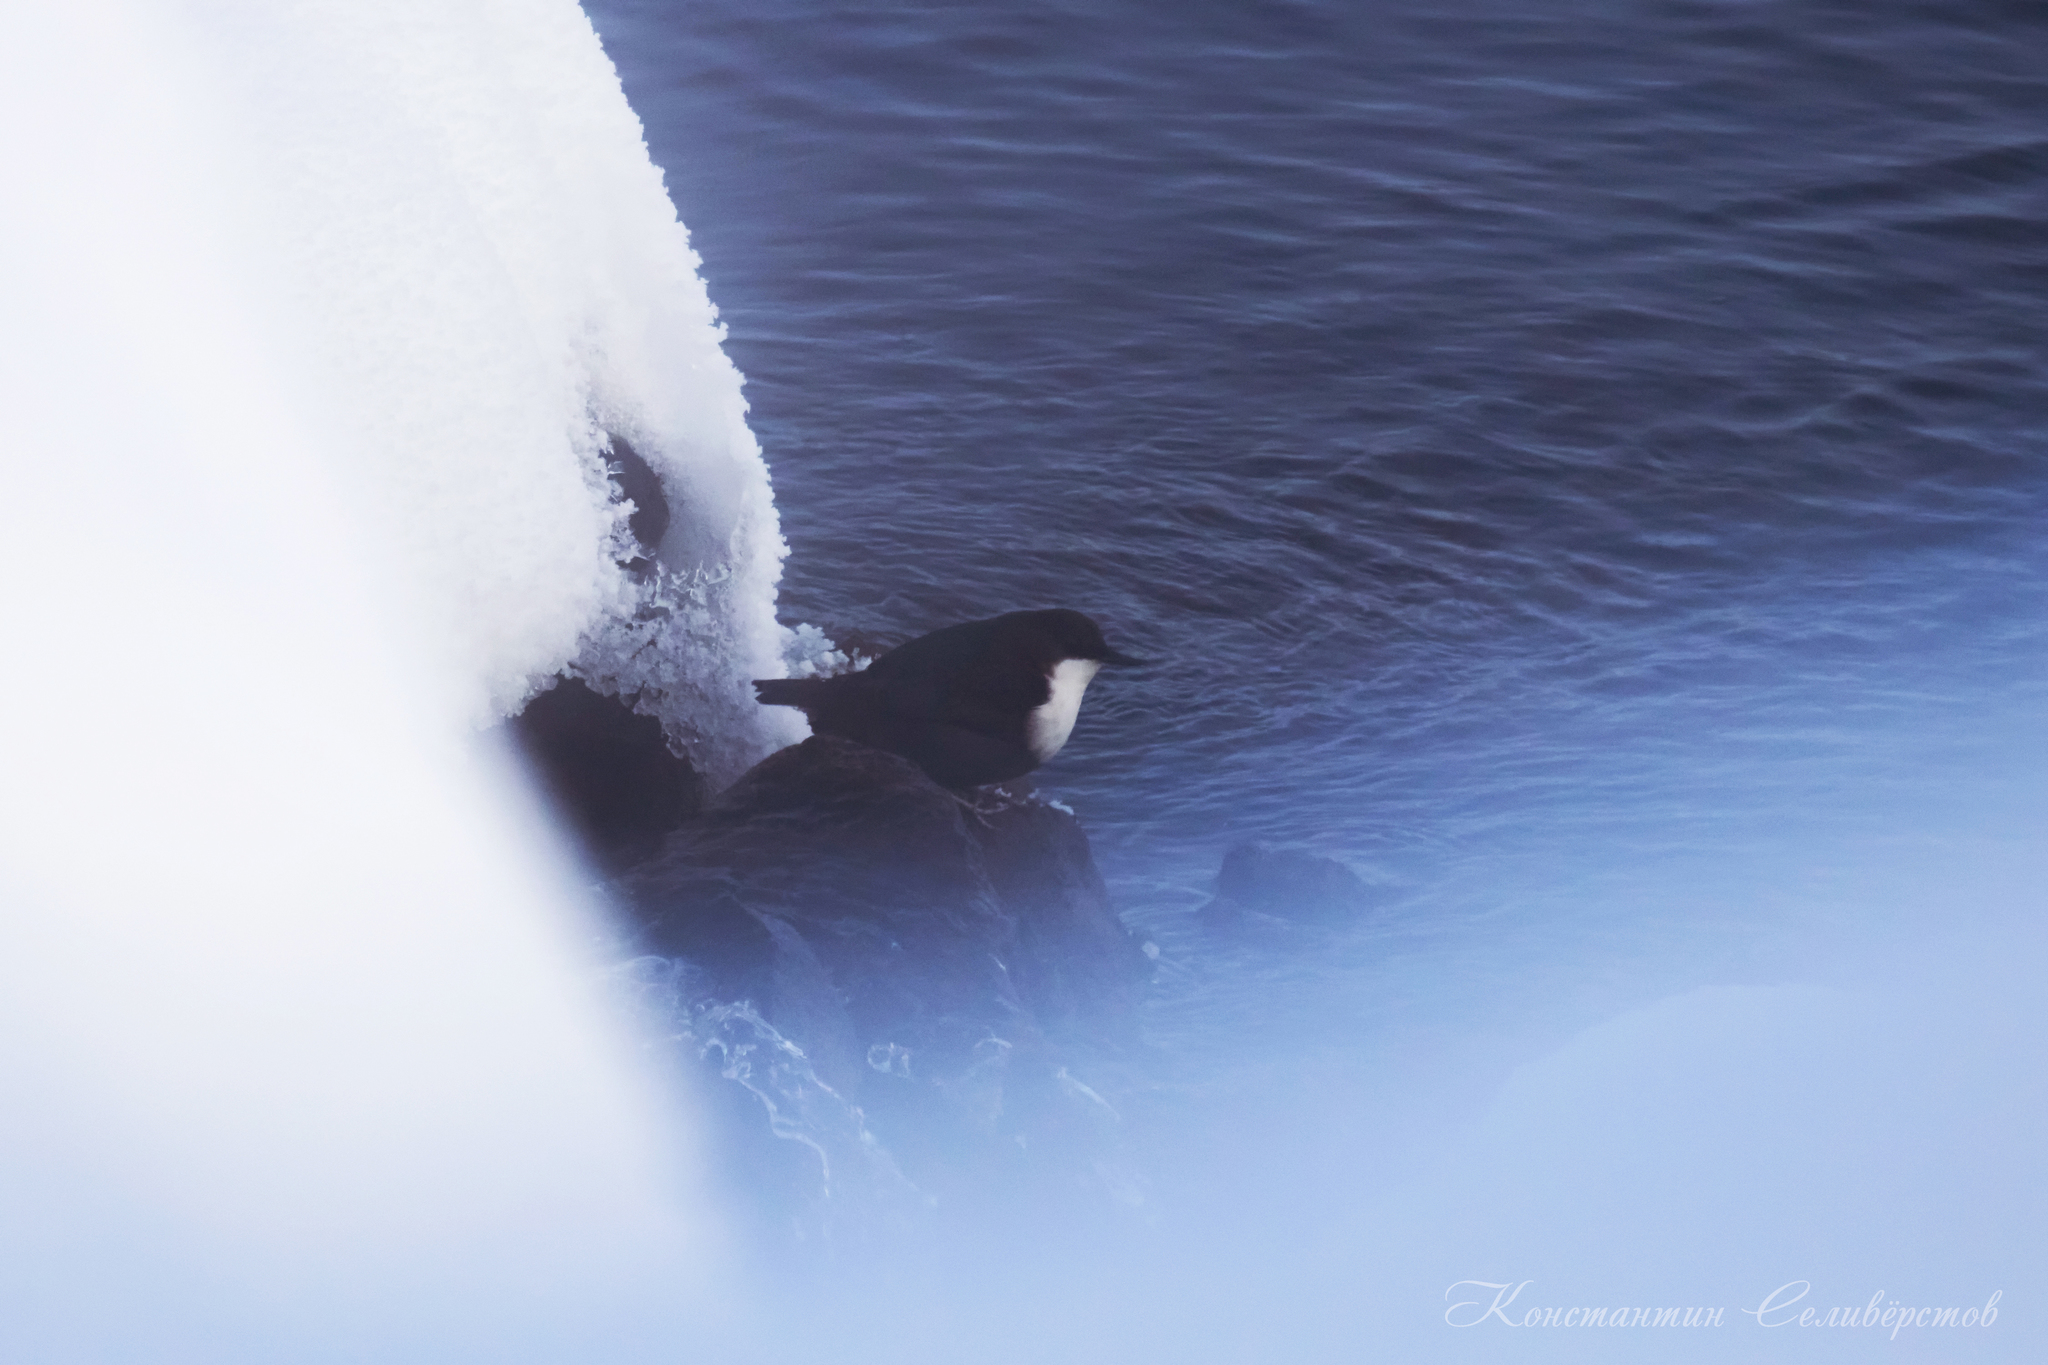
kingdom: Animalia
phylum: Chordata
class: Aves
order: Passeriformes
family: Cinclidae
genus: Cinclus
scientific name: Cinclus cinclus
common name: White-throated dipper
